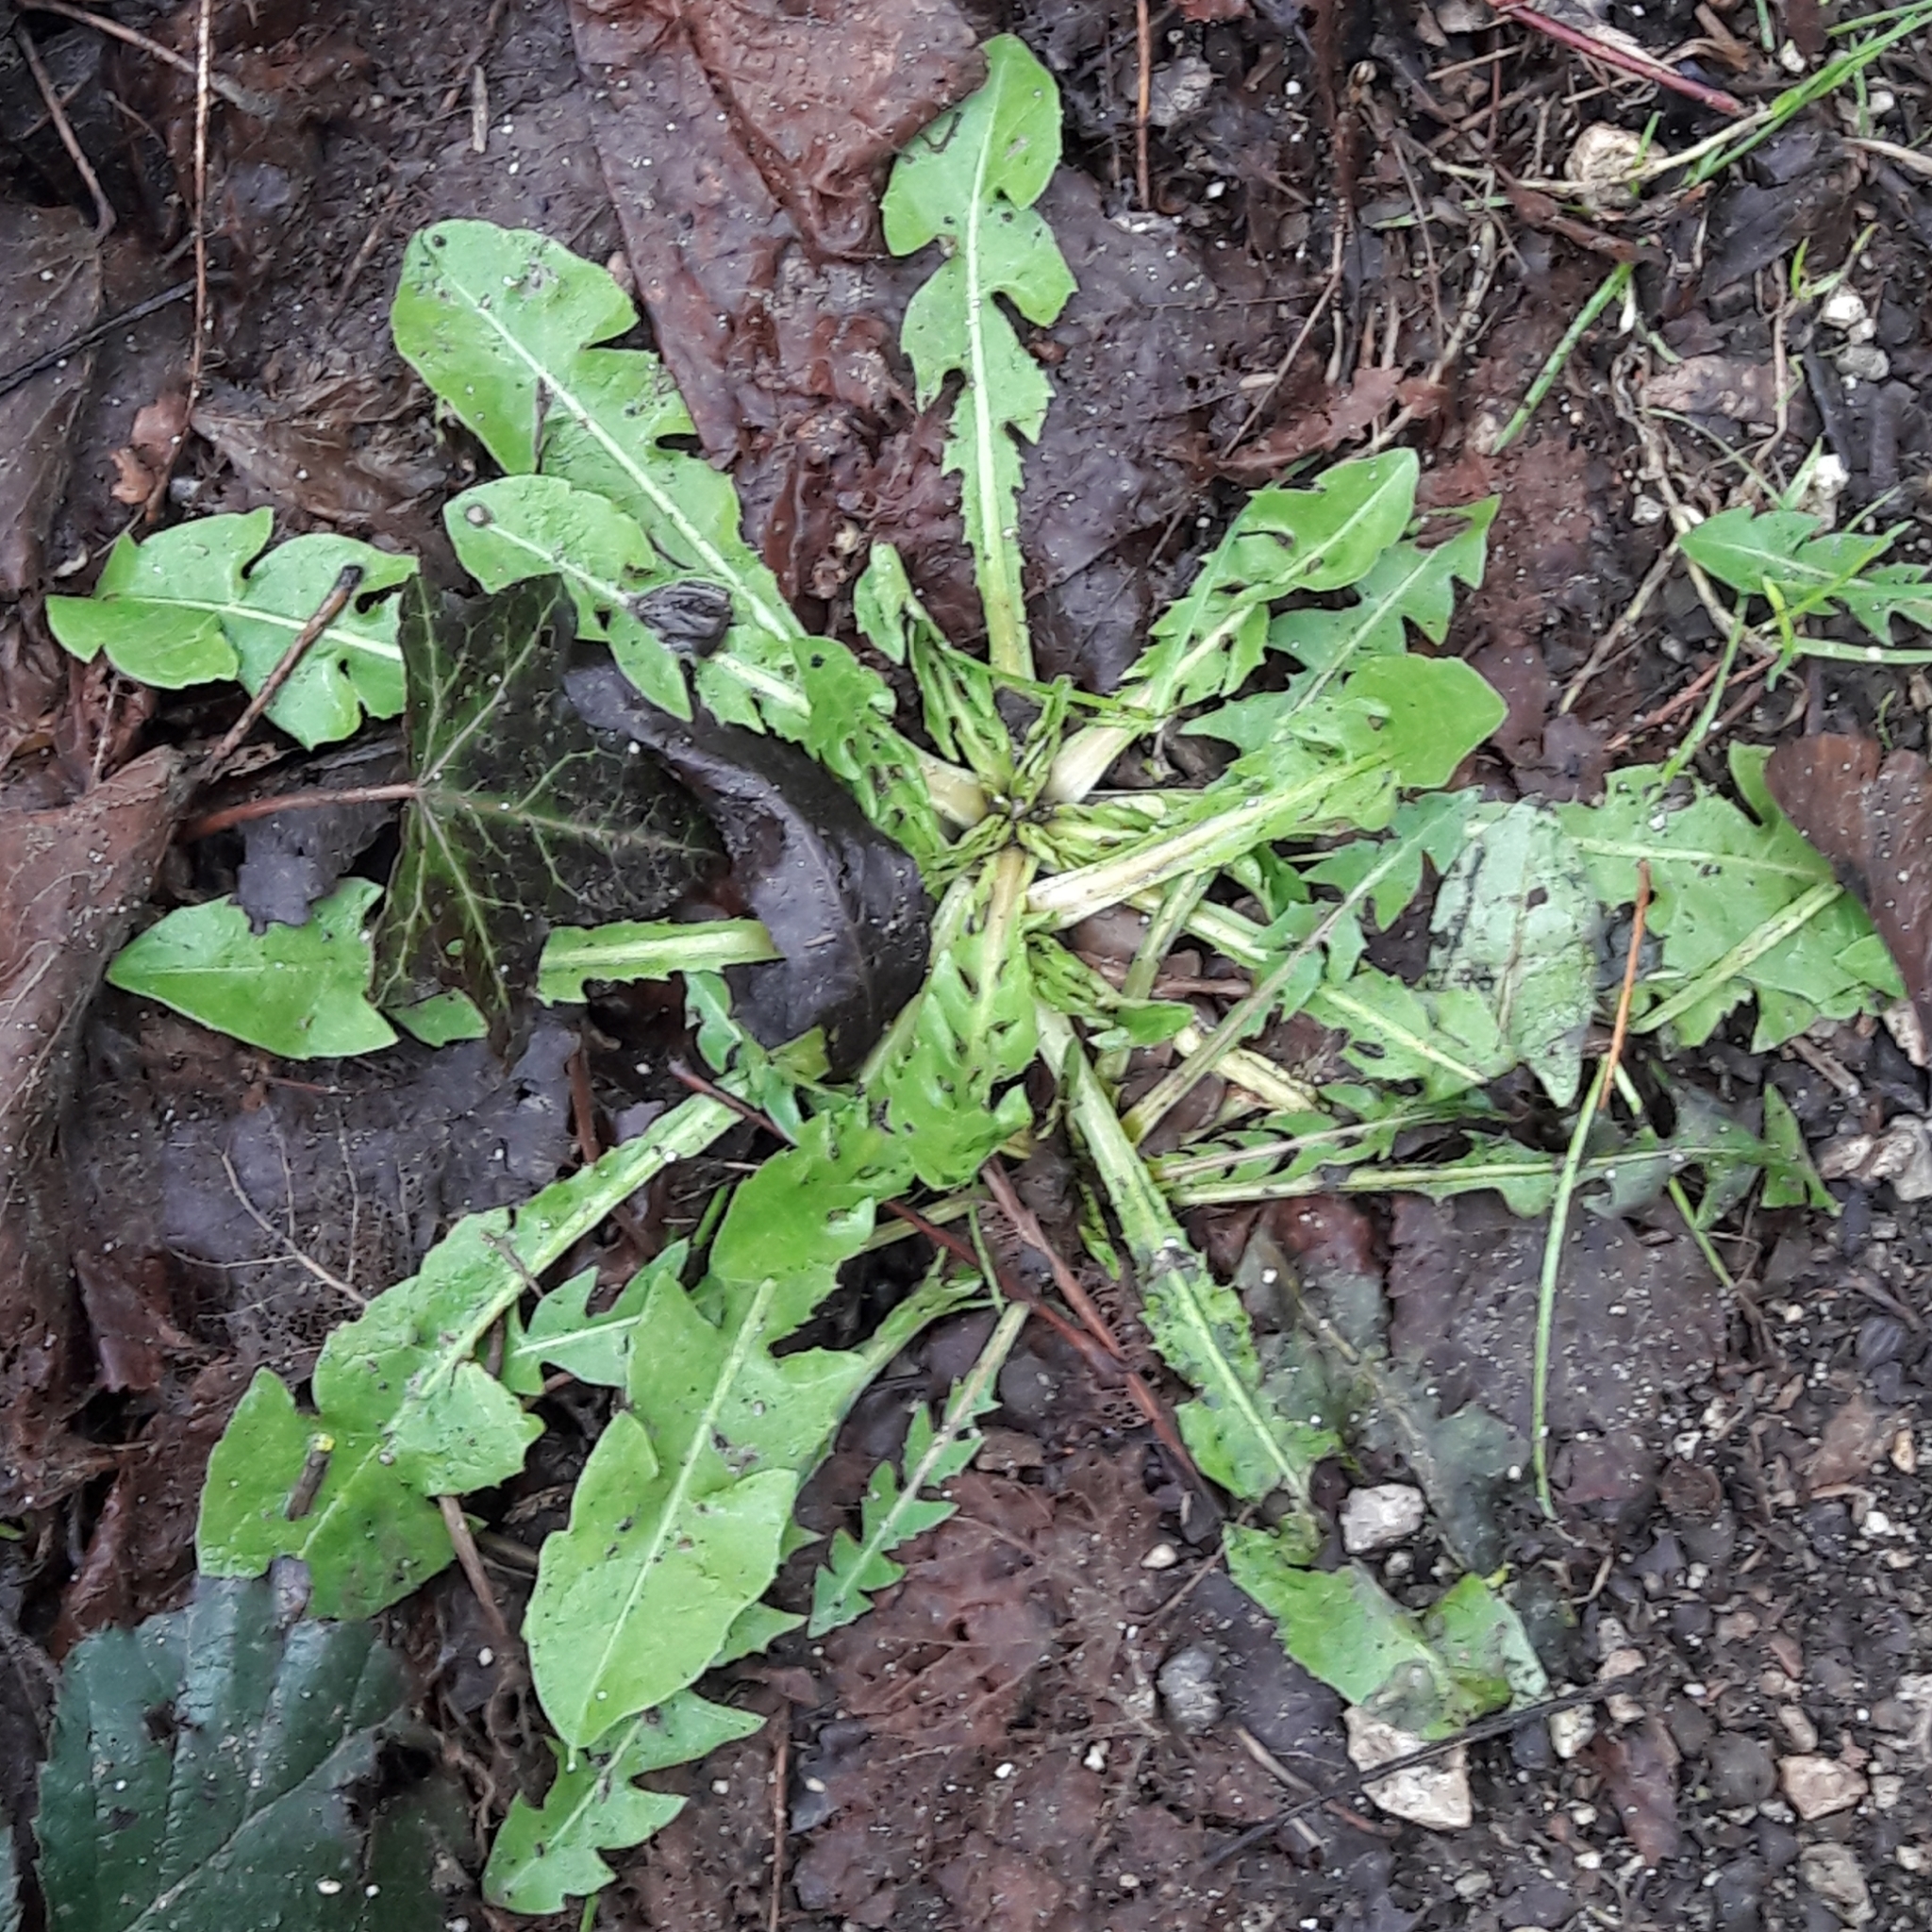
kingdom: Plantae
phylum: Tracheophyta
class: Magnoliopsida
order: Asterales
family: Asteraceae
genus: Taraxacum
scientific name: Taraxacum officinale
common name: Common dandelion
